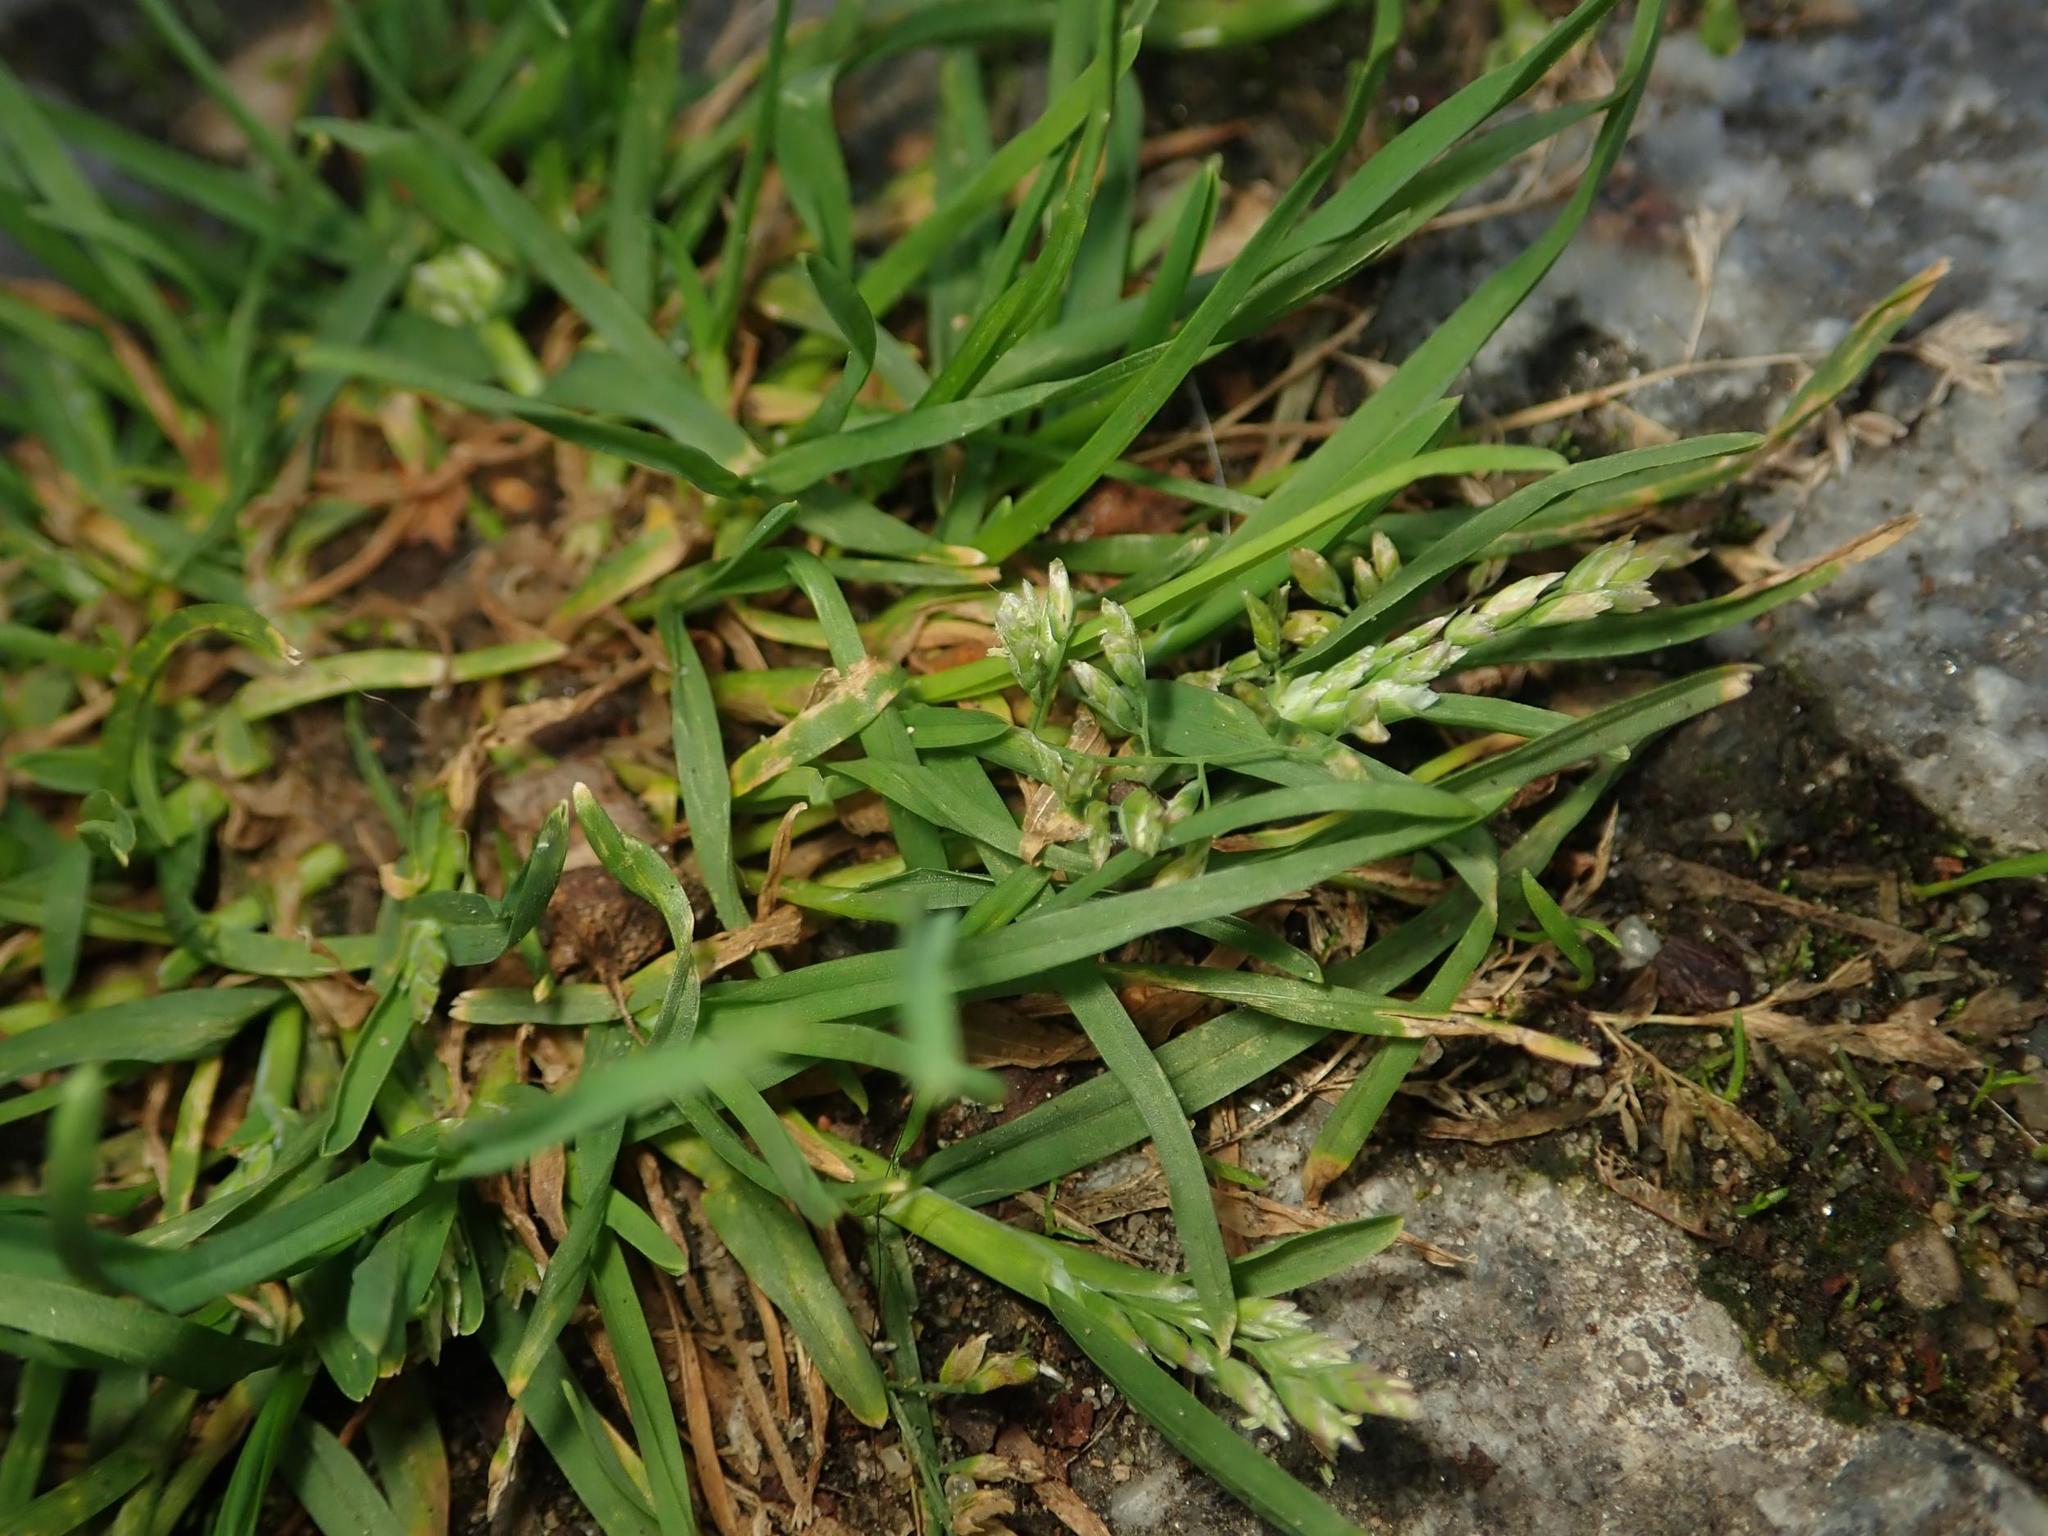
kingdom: Plantae
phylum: Tracheophyta
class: Liliopsida
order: Poales
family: Poaceae
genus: Poa
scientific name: Poa annua
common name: Annual bluegrass
